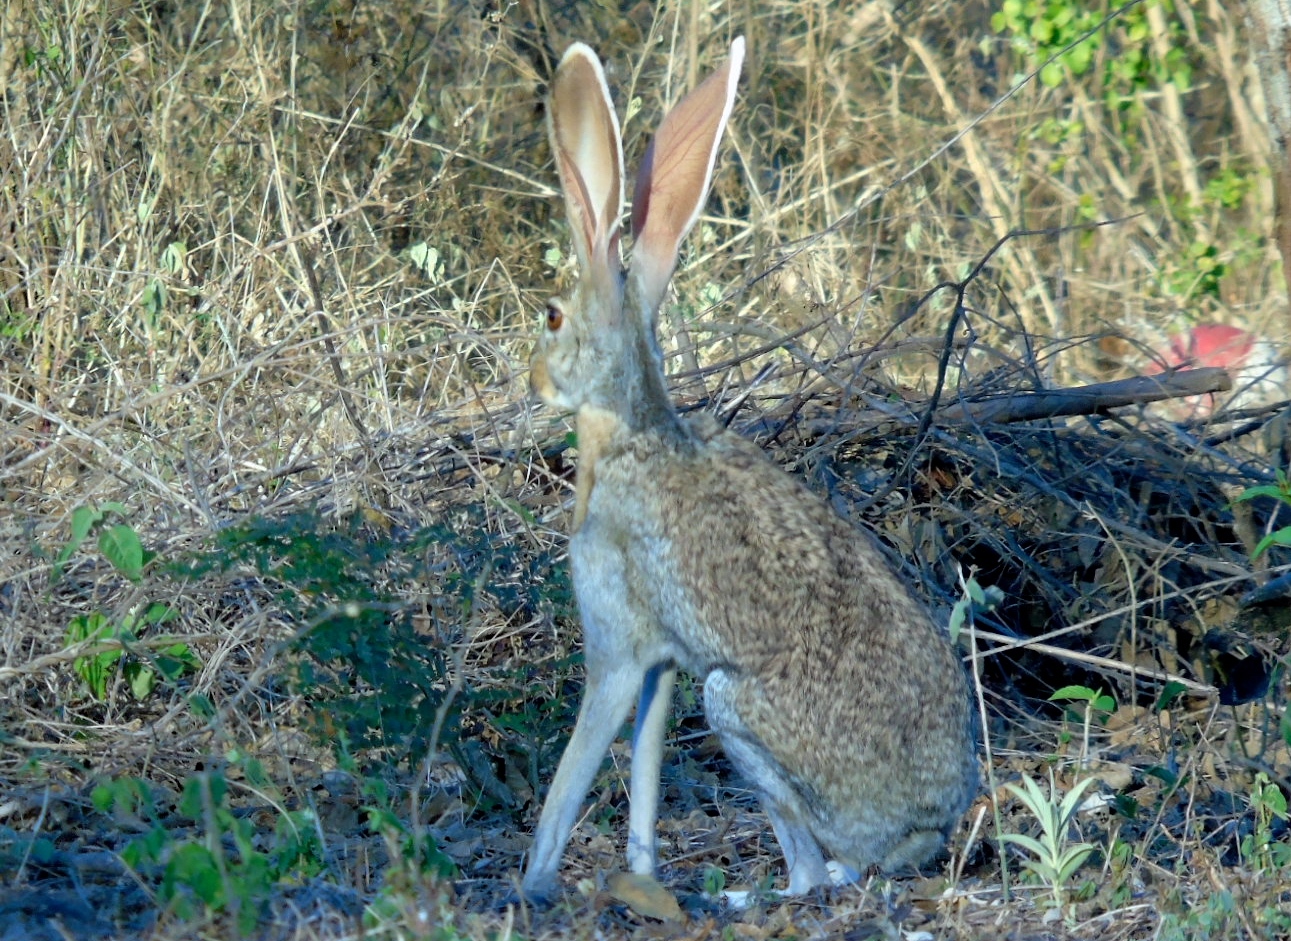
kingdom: Animalia
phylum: Chordata
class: Mammalia
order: Lagomorpha
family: Leporidae
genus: Lepus
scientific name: Lepus alleni
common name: Antelope jackrabbit
